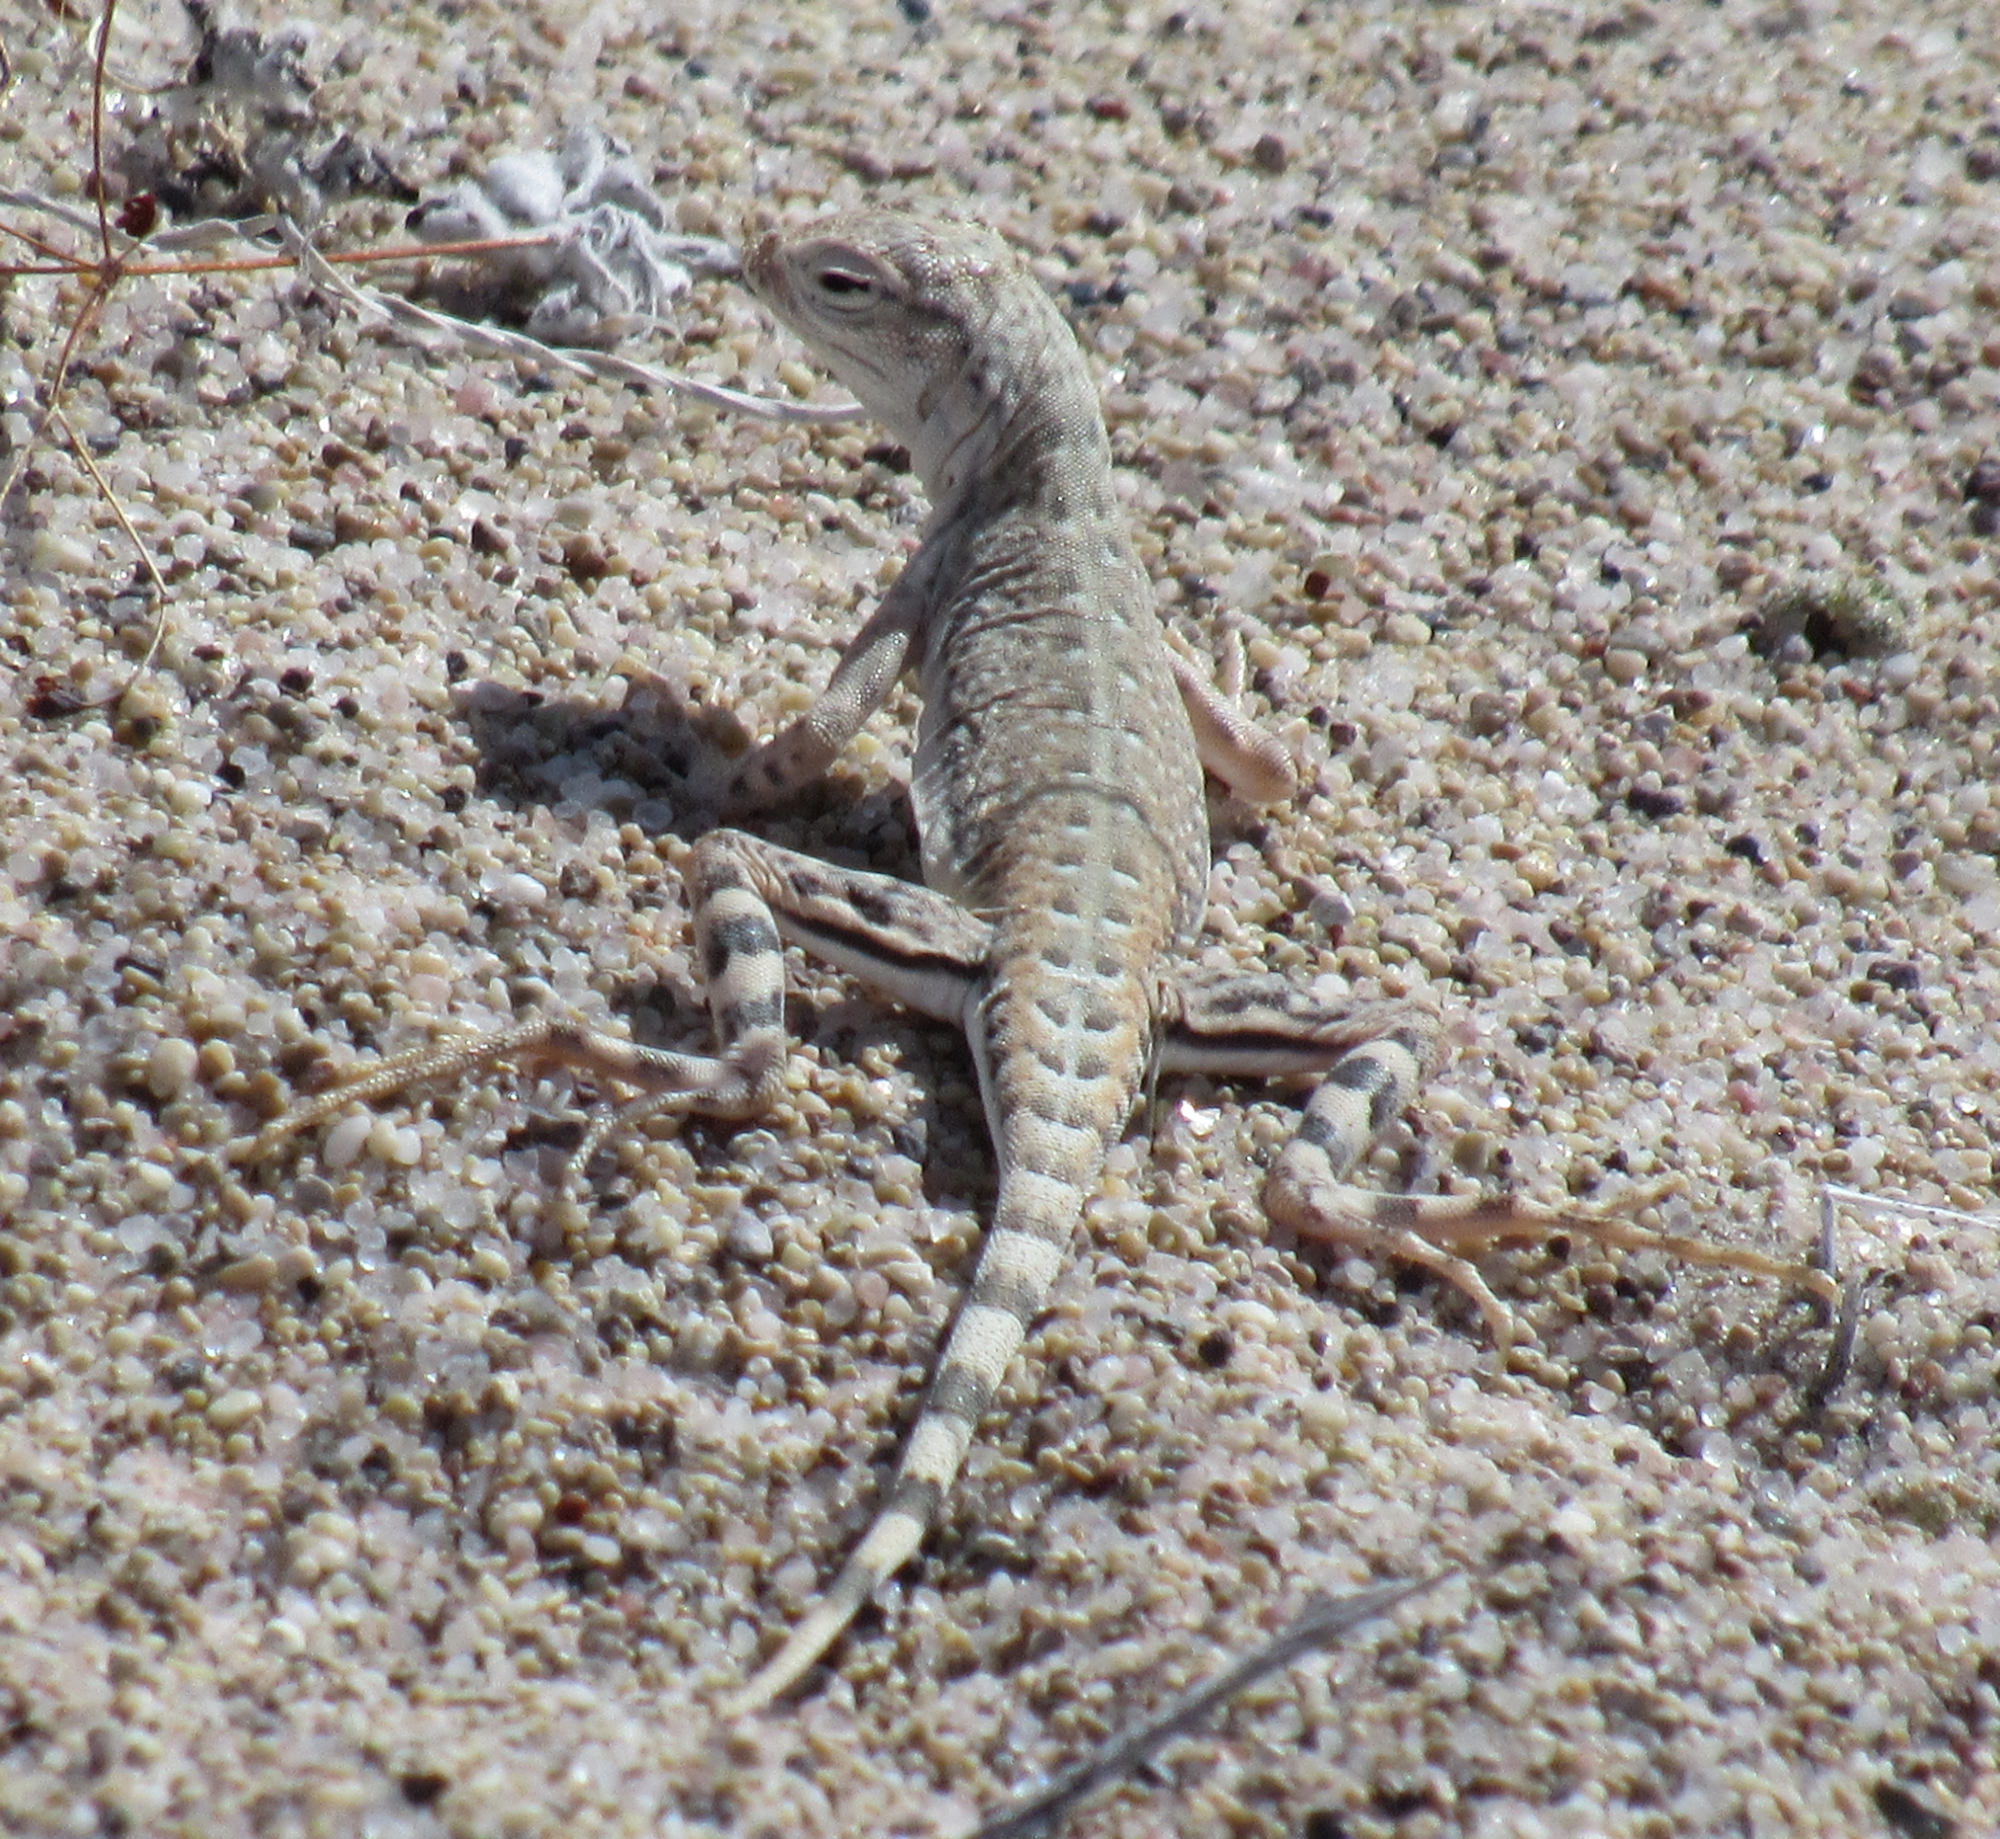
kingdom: Animalia
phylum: Chordata
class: Squamata
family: Phrynosomatidae
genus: Callisaurus
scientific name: Callisaurus draconoides
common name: Zebra-tailed lizard
